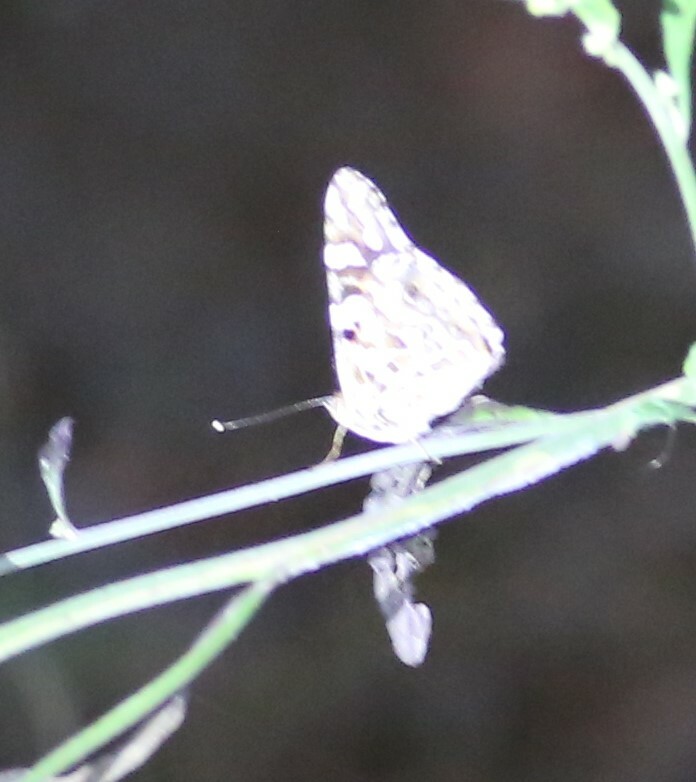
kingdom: Animalia
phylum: Arthropoda
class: Insecta
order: Lepidoptera
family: Nymphalidae
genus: Vanessa
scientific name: Vanessa kershawi
